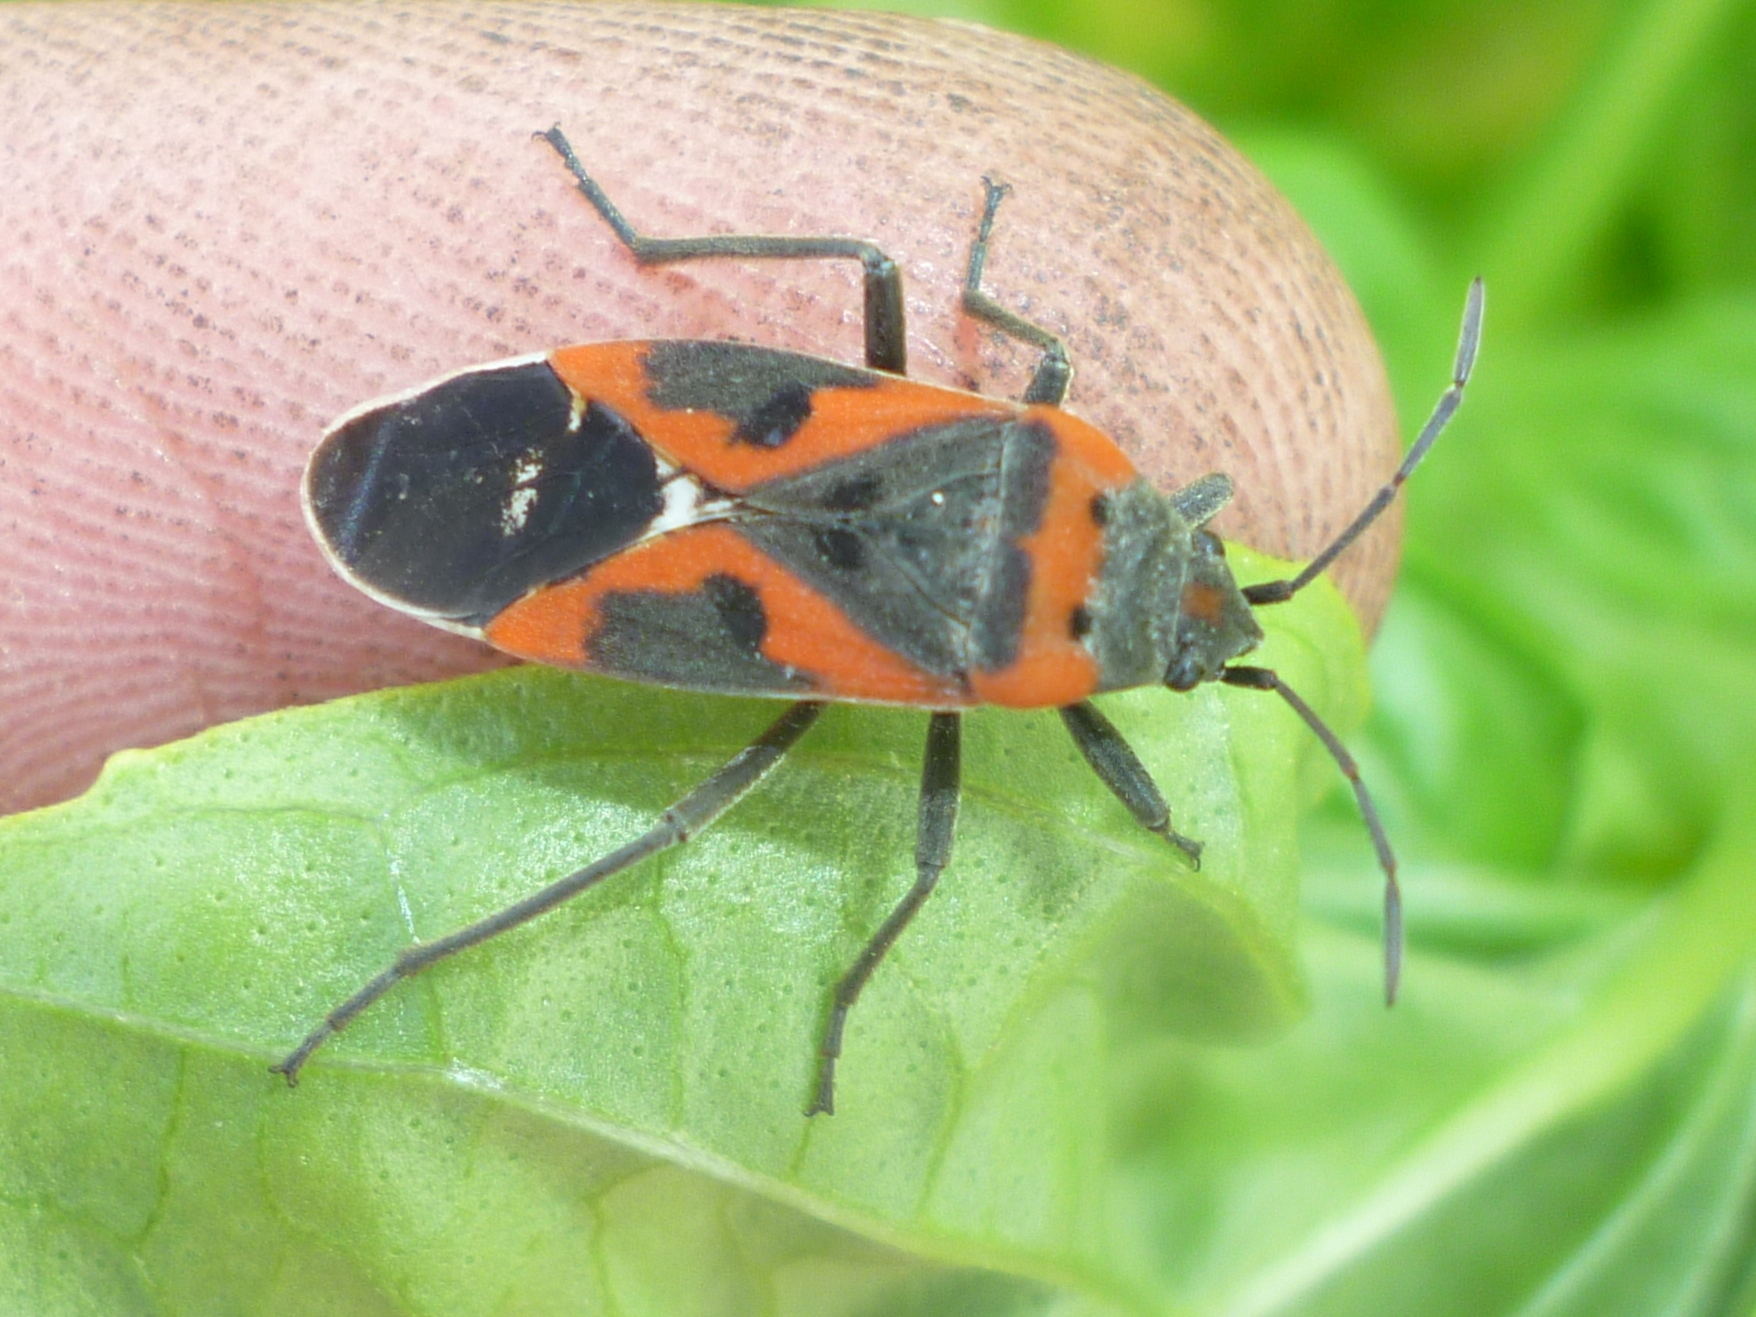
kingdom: Animalia
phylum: Arthropoda
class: Insecta
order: Hemiptera
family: Lygaeidae
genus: Lygaeus
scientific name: Lygaeus kalmii
